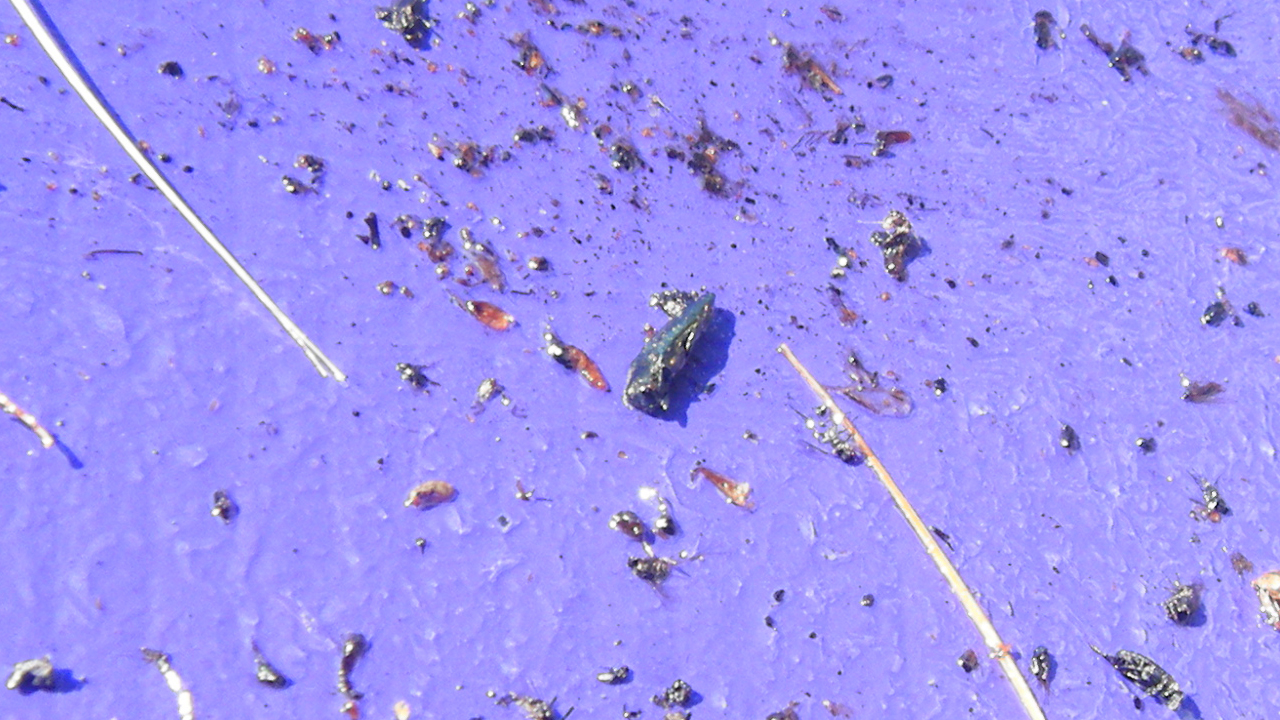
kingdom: Animalia
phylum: Arthropoda
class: Insecta
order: Coleoptera
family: Buprestidae
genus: Agrilus
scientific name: Agrilus planipennis
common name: Emerald ash borer
